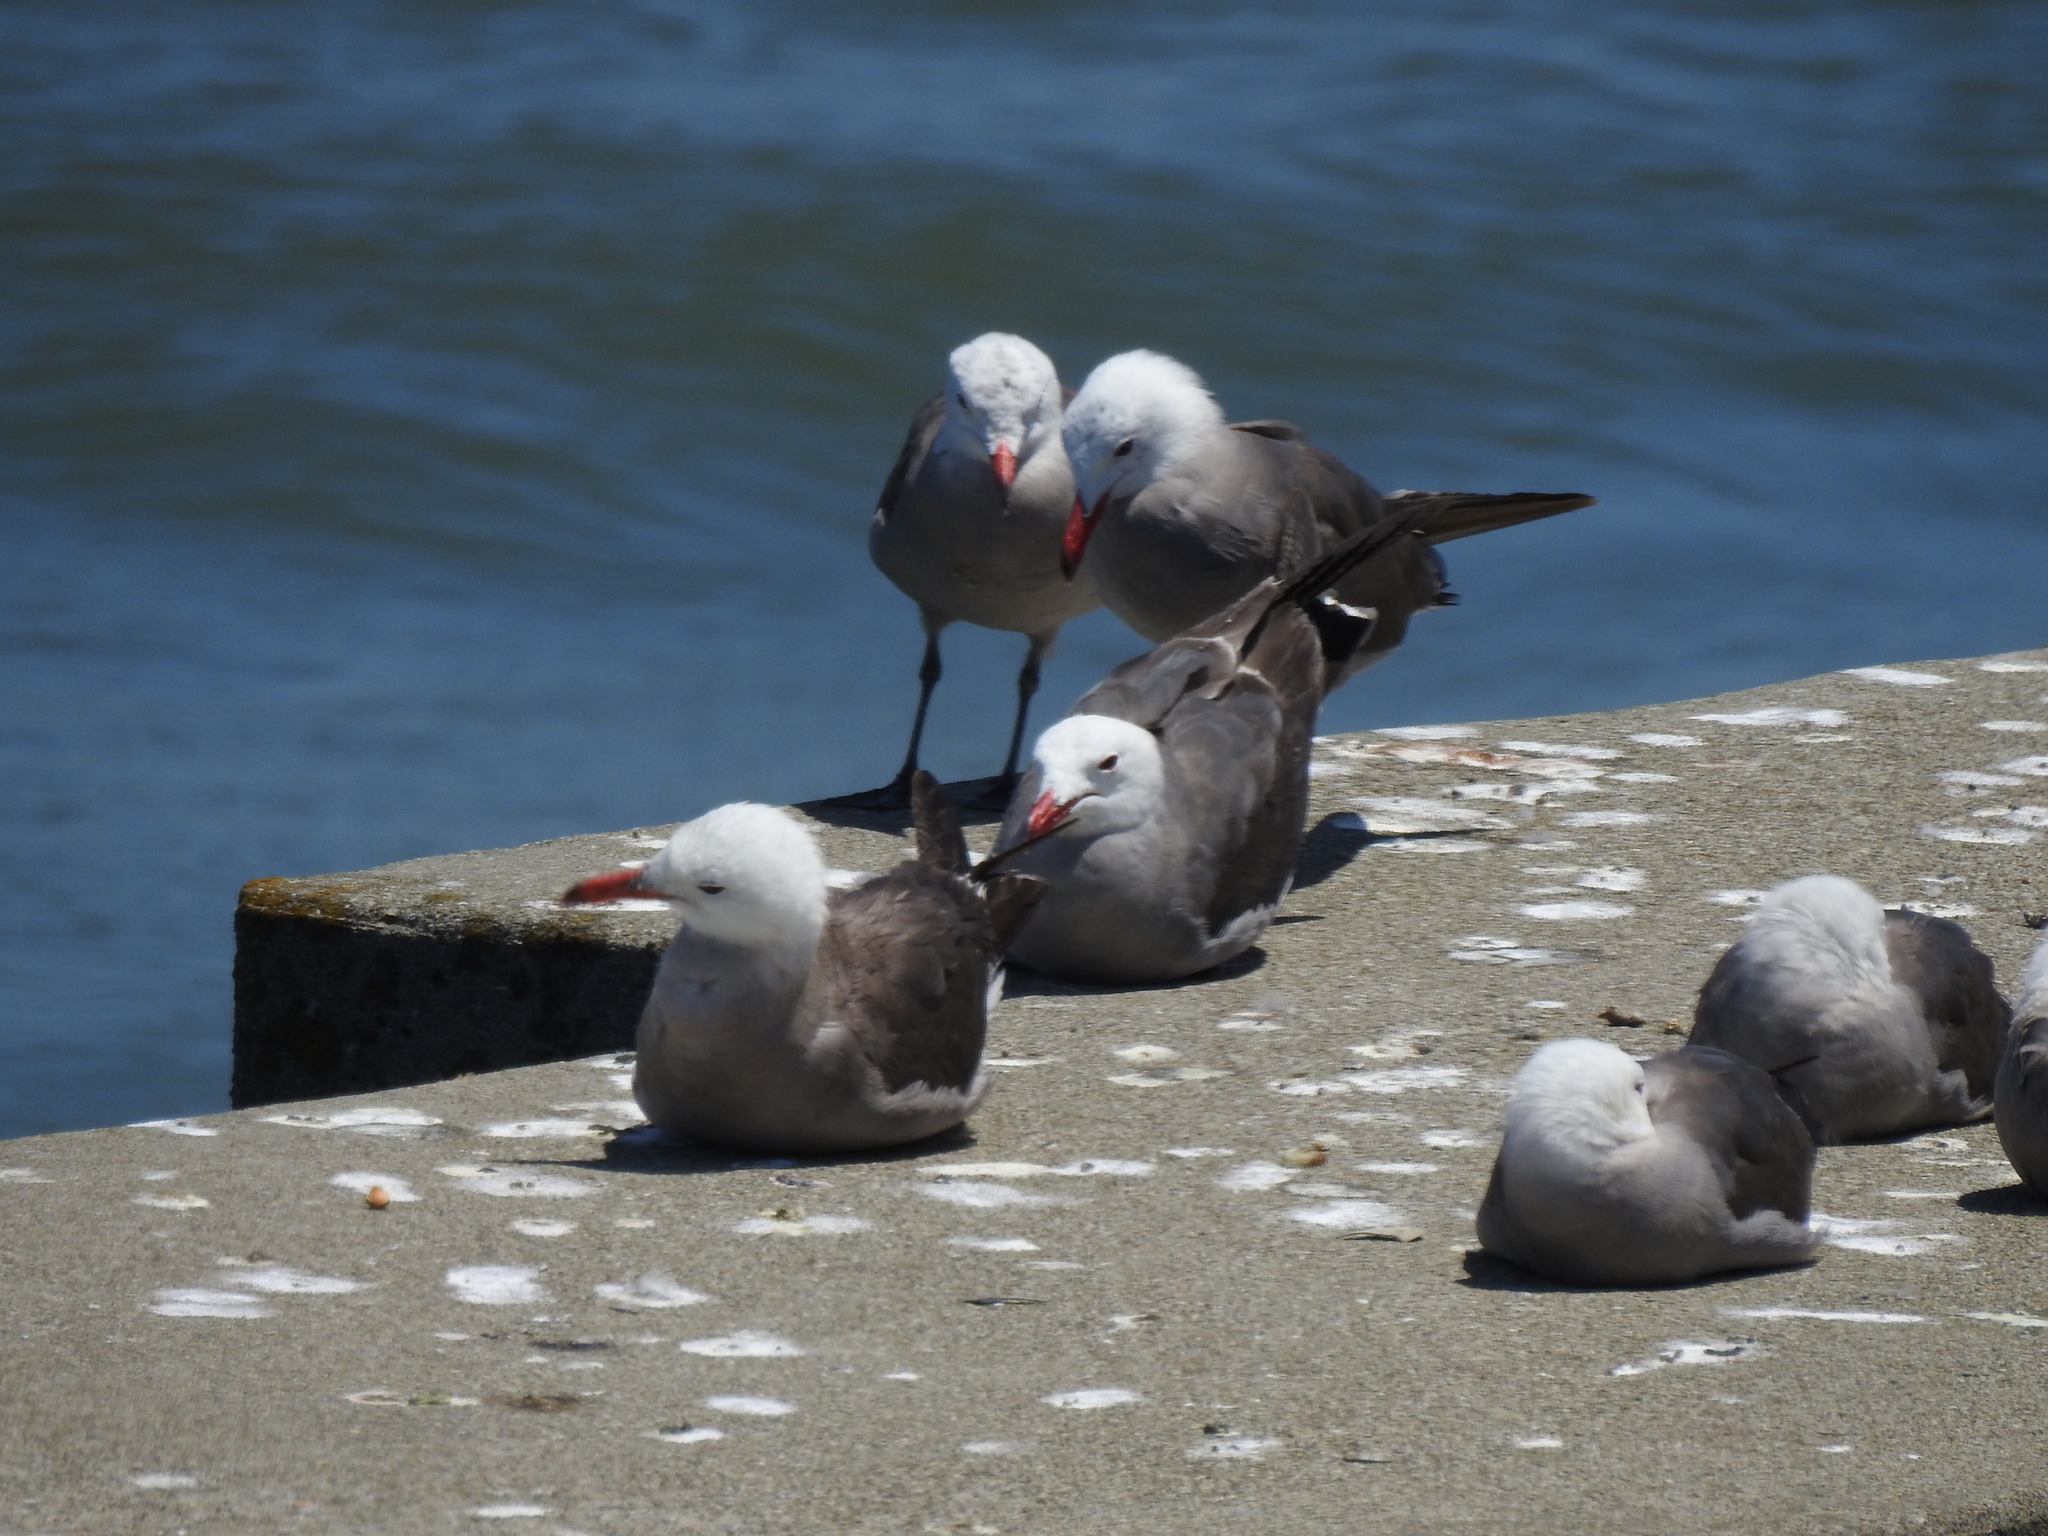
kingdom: Animalia
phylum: Chordata
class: Aves
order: Charadriiformes
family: Laridae
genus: Larus
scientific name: Larus heermanni
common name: Heermann's gull
